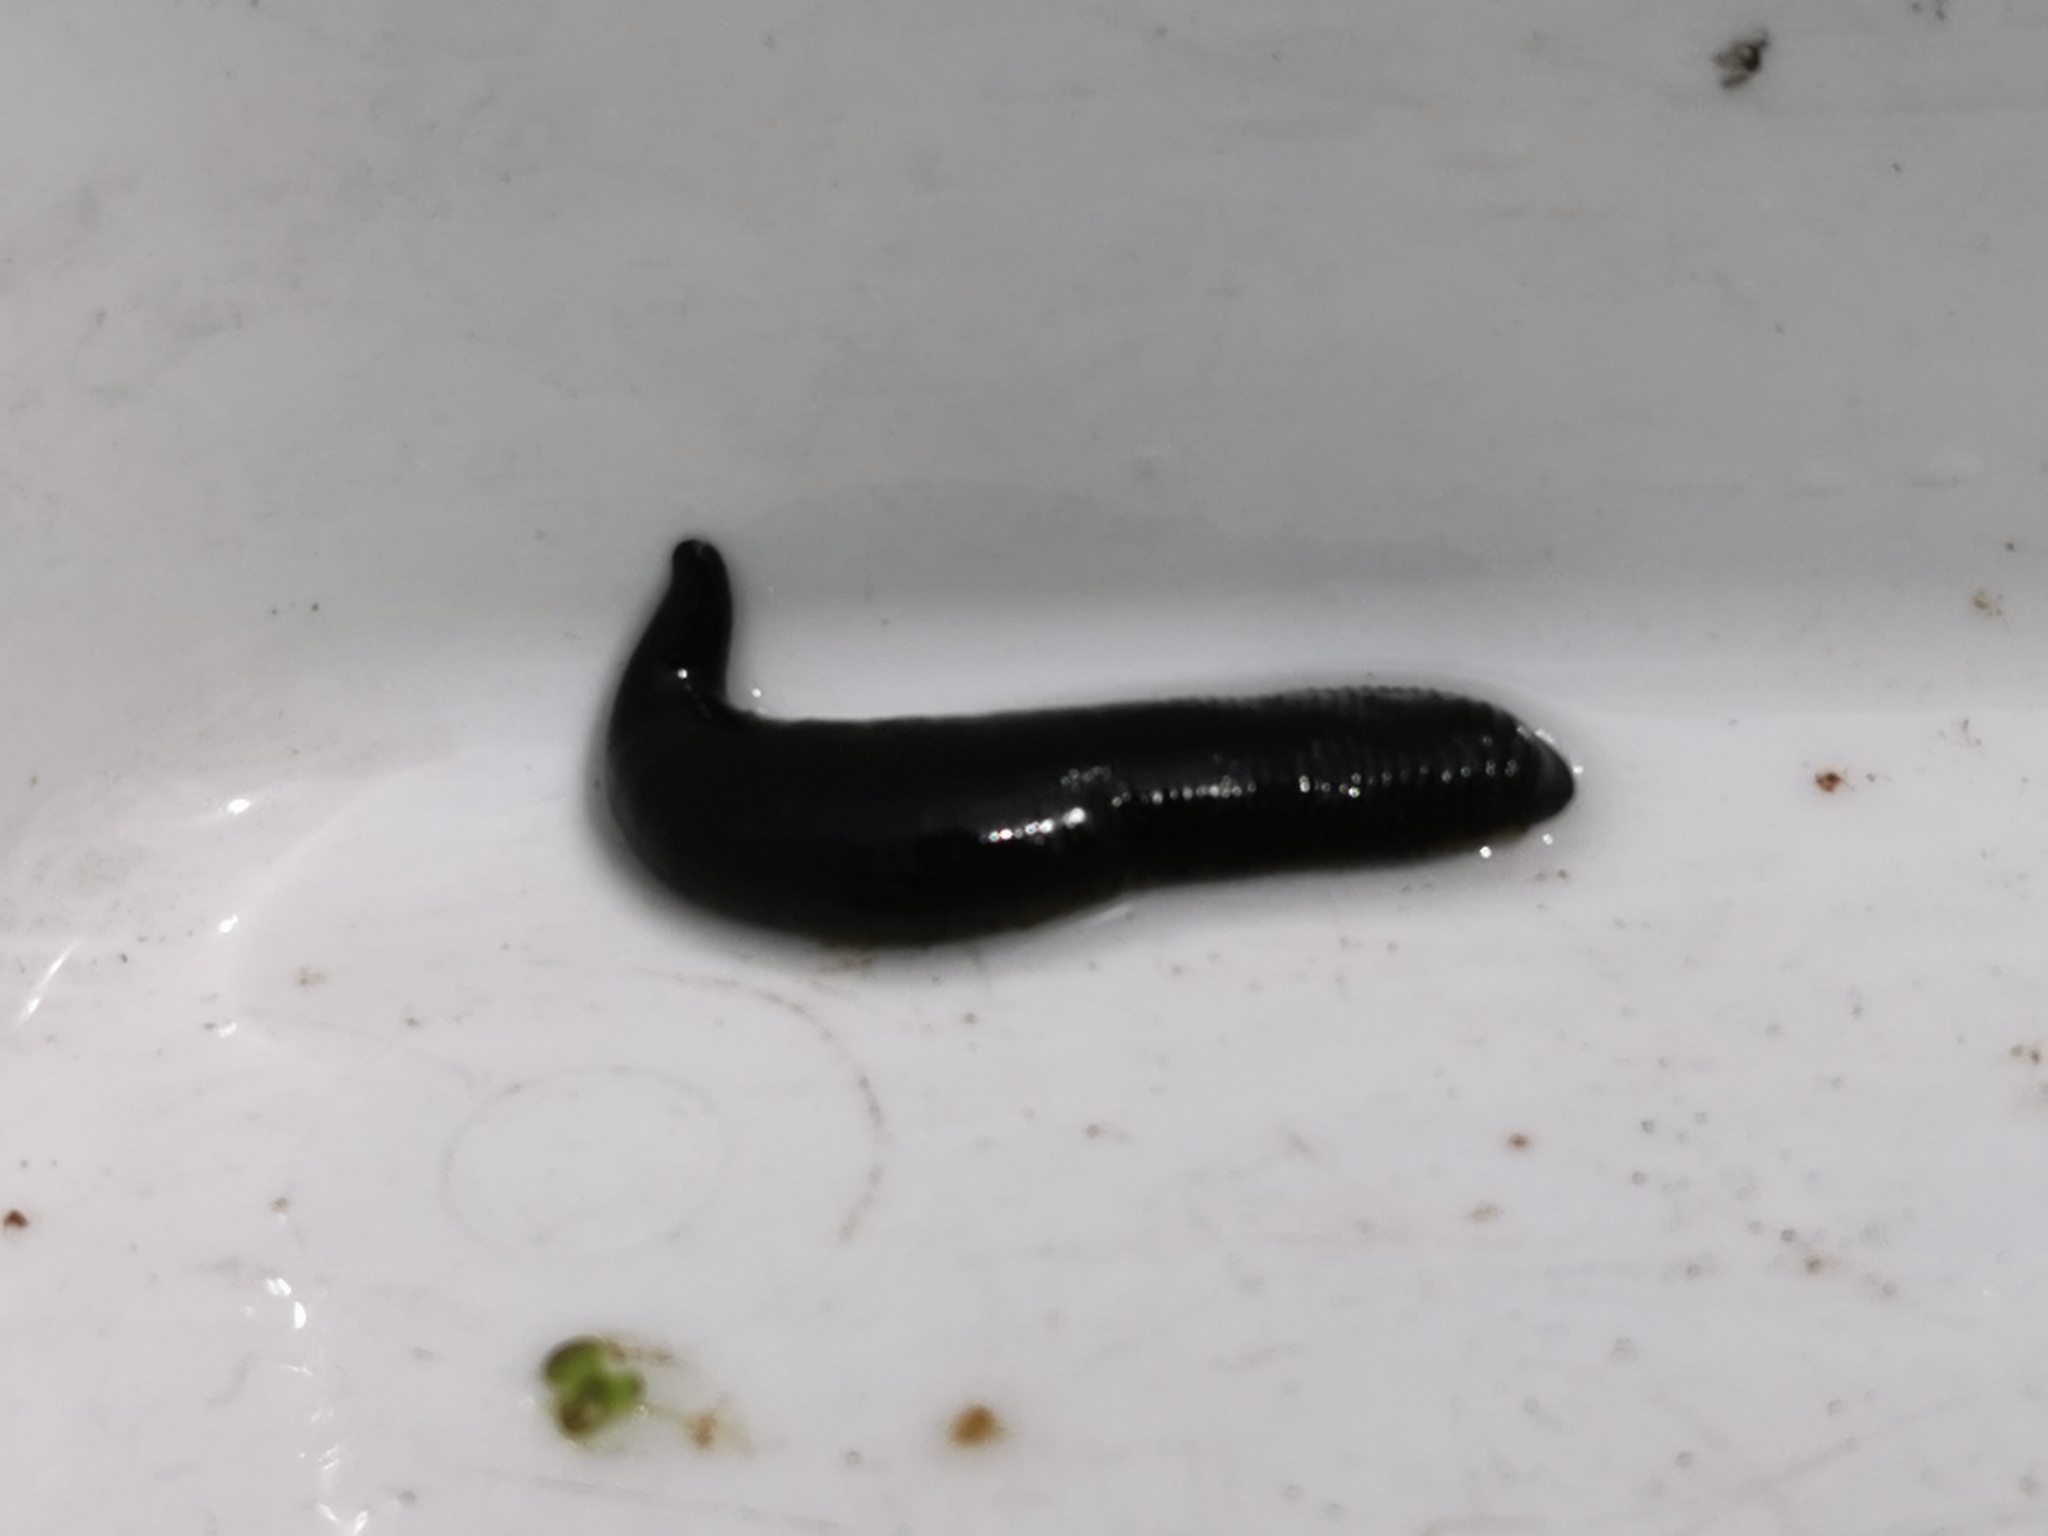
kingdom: Animalia
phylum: Annelida
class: Clitellata
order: Arhynchobdellida
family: Haemopidae
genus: Haemopis
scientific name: Haemopis sanguisuga
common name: Horse leech
